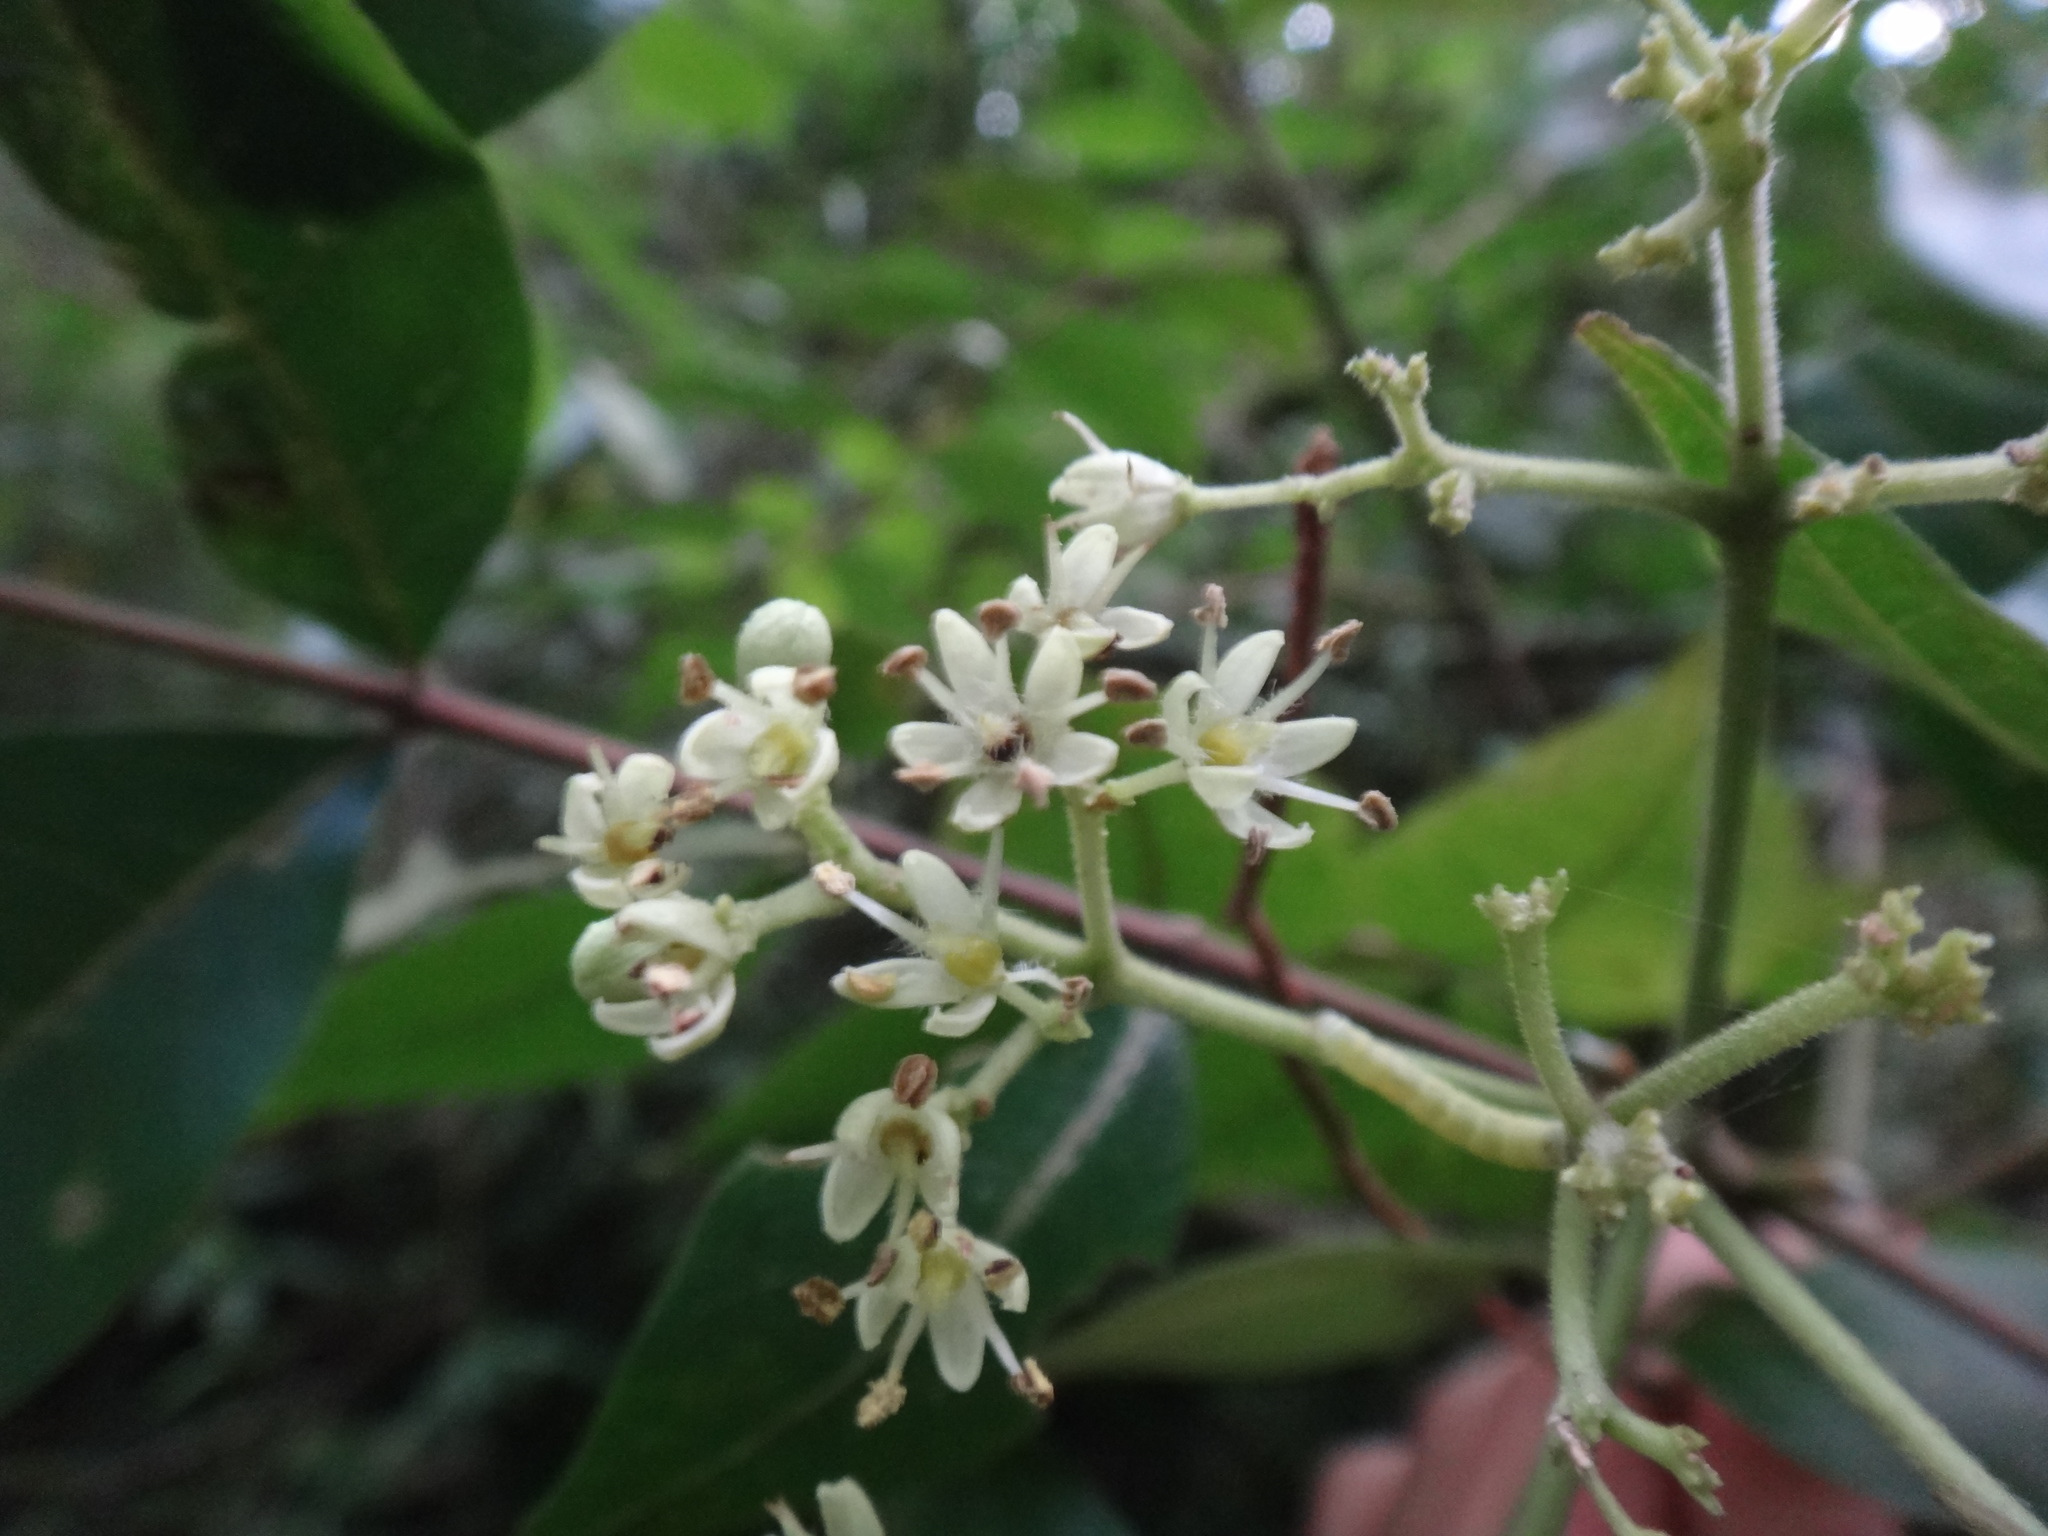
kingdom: Plantae
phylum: Tracheophyta
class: Magnoliopsida
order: Sapindales
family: Rutaceae
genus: Tetradium
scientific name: Tetradium ruticarpum
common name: Evodia
